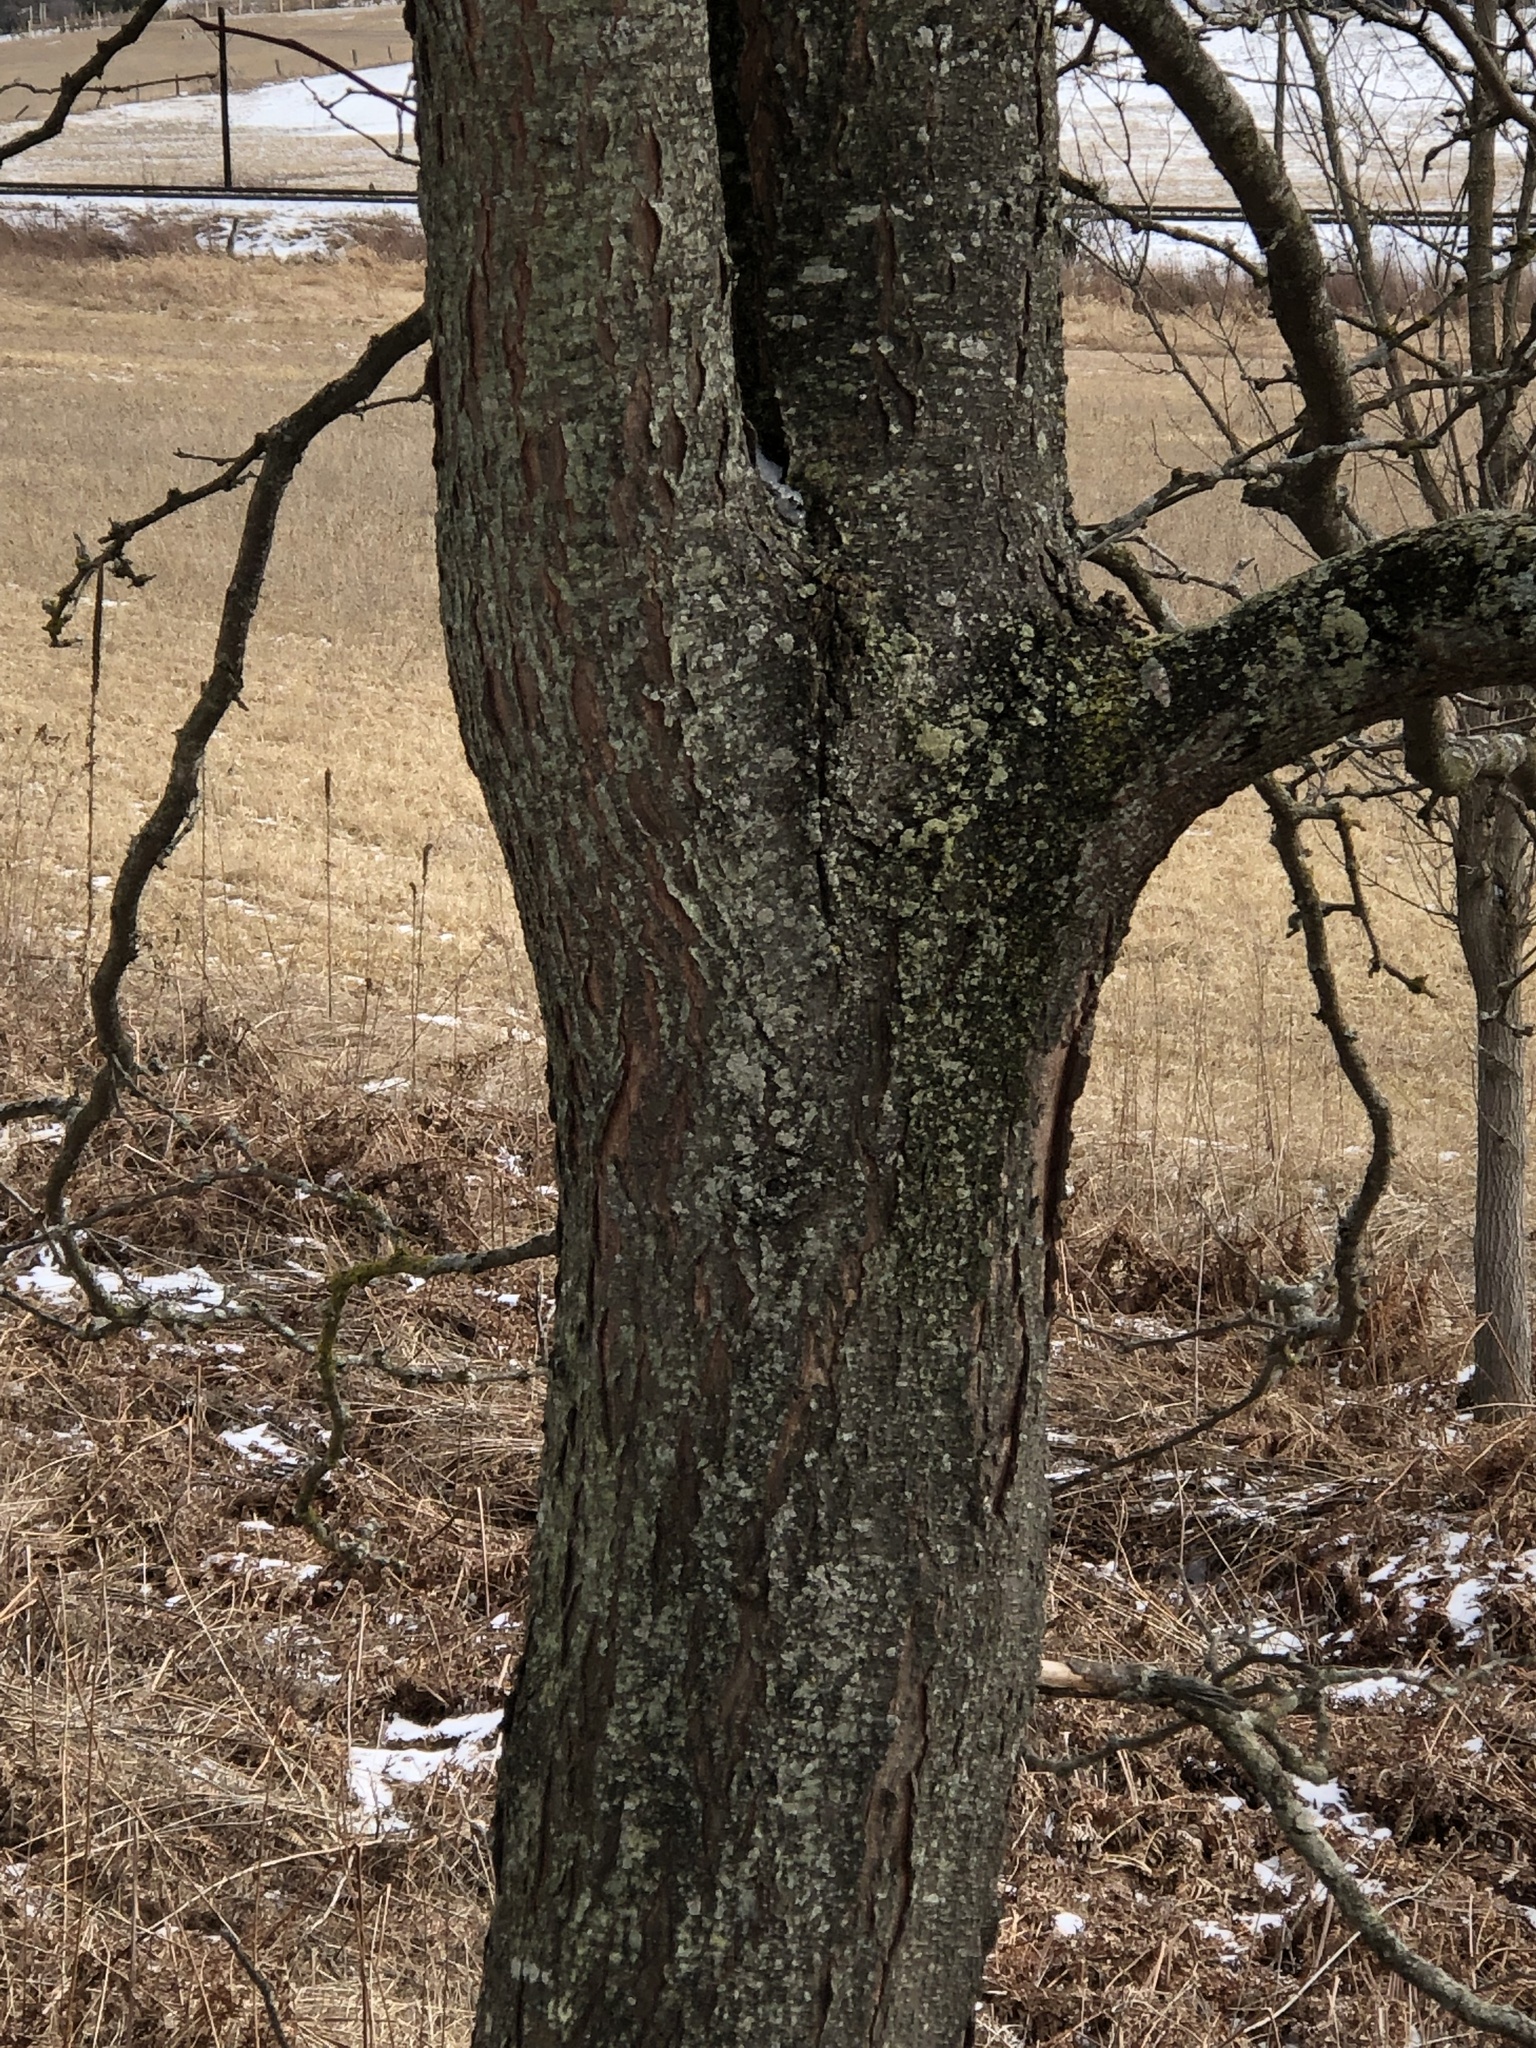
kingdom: Plantae
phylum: Tracheophyta
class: Magnoliopsida
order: Fabales
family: Fabaceae
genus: Gleditsia
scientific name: Gleditsia triacanthos
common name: Common honeylocust
